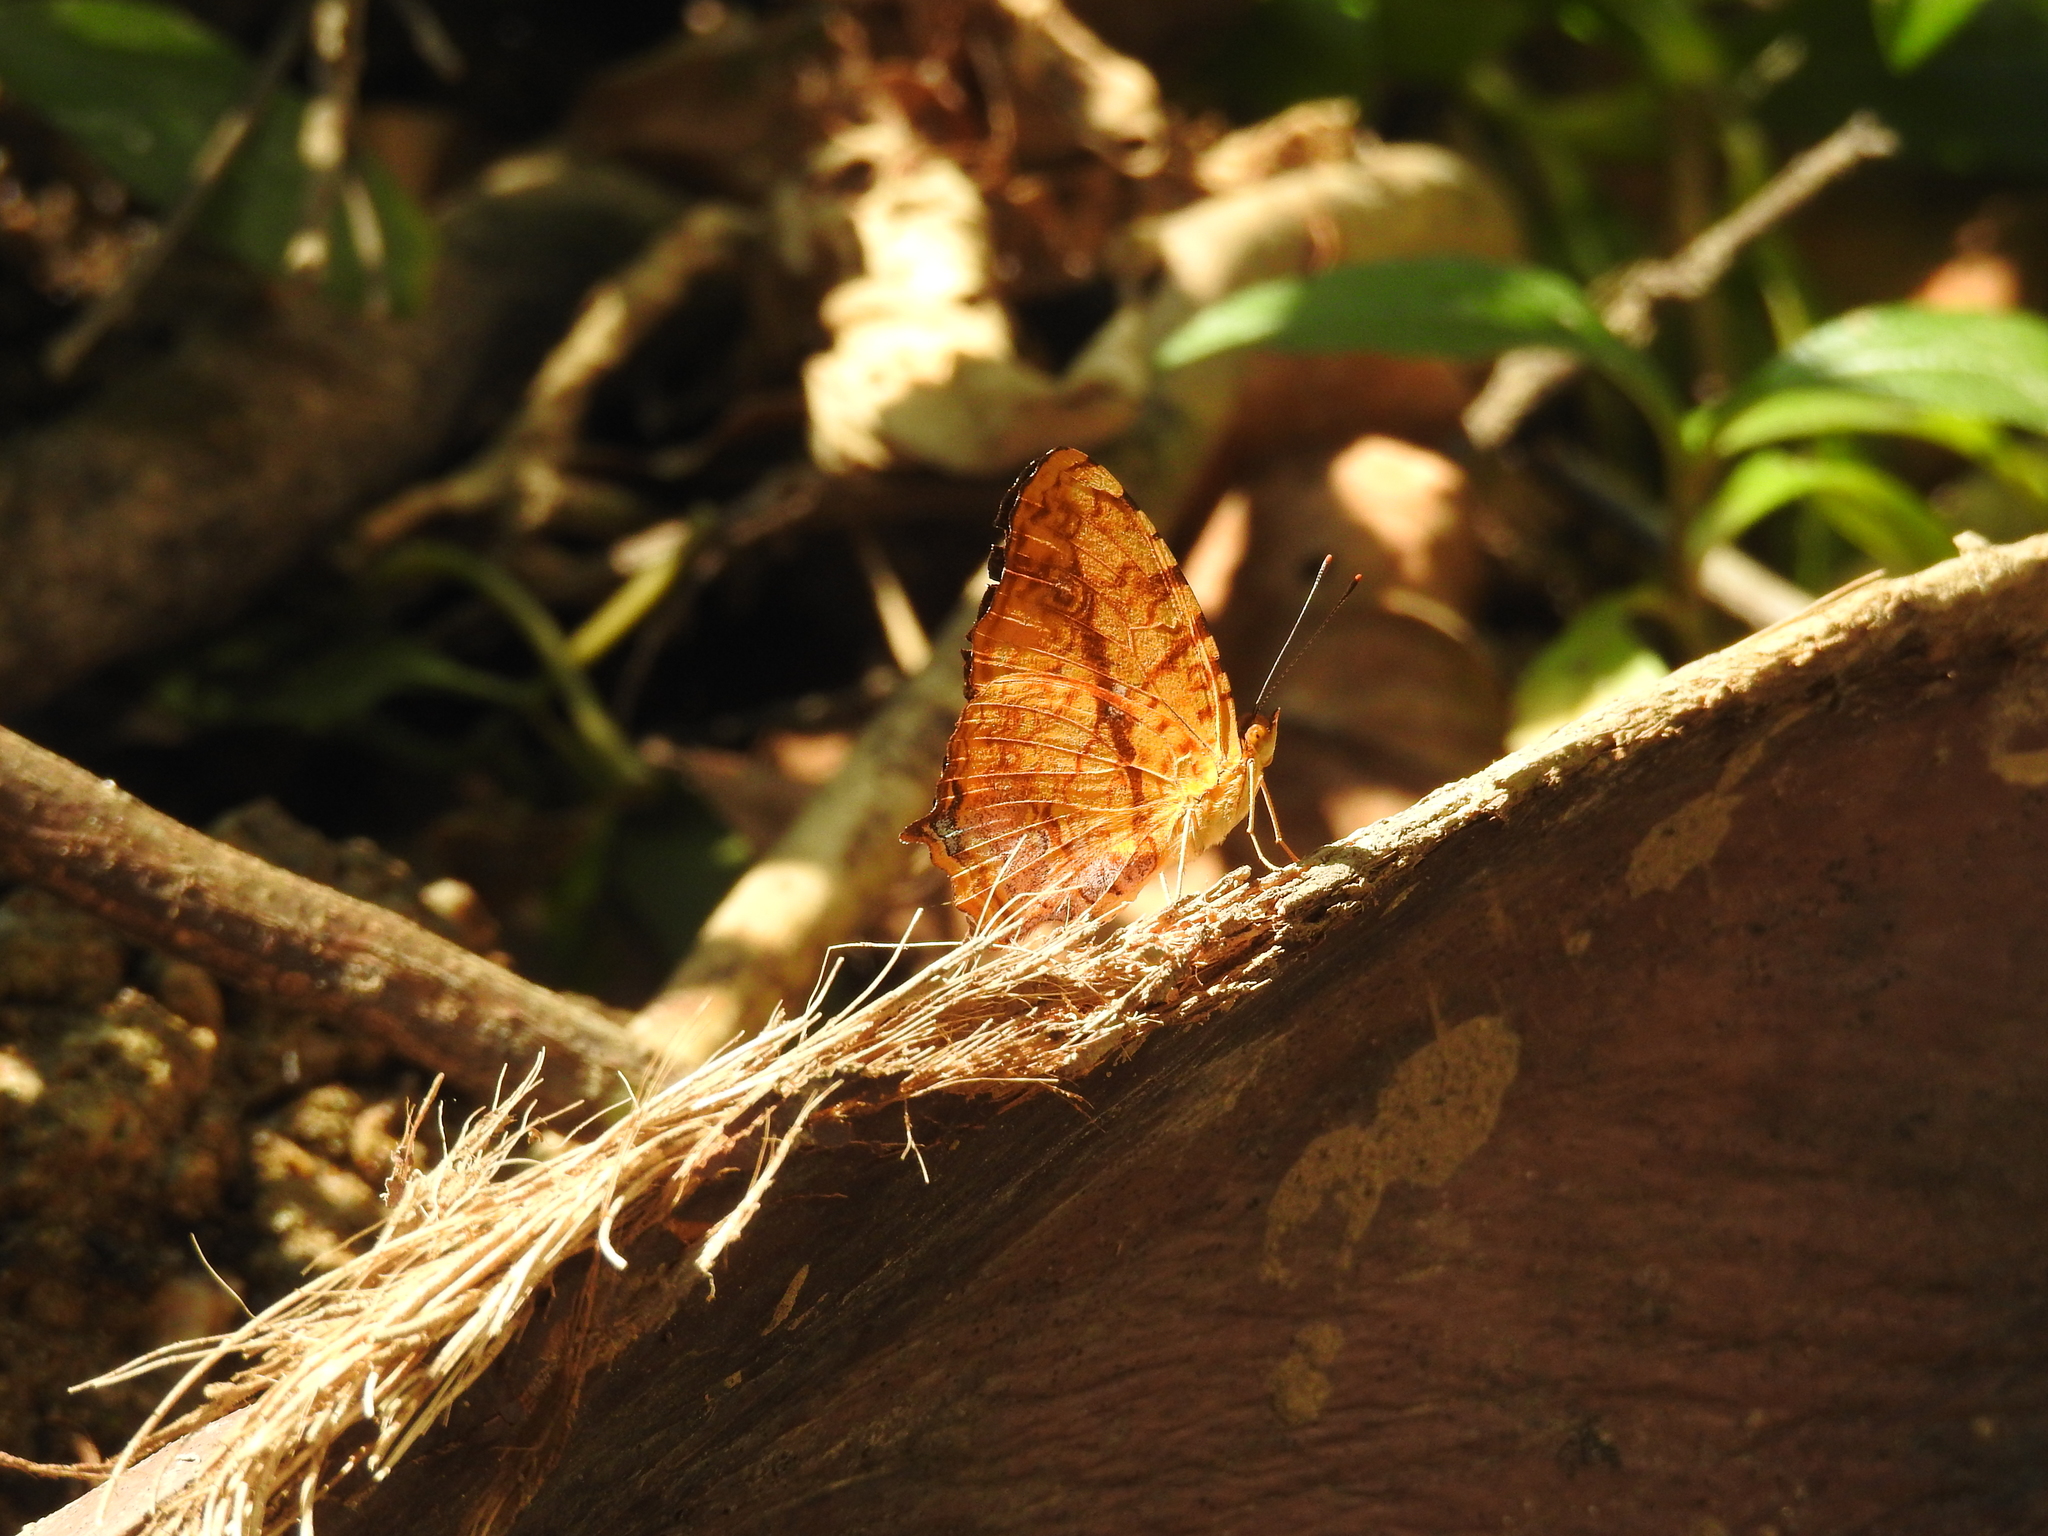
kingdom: Animalia
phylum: Arthropoda
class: Insecta
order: Lepidoptera
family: Nymphalidae
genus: Symbrenthia
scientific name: Symbrenthia hypselis
